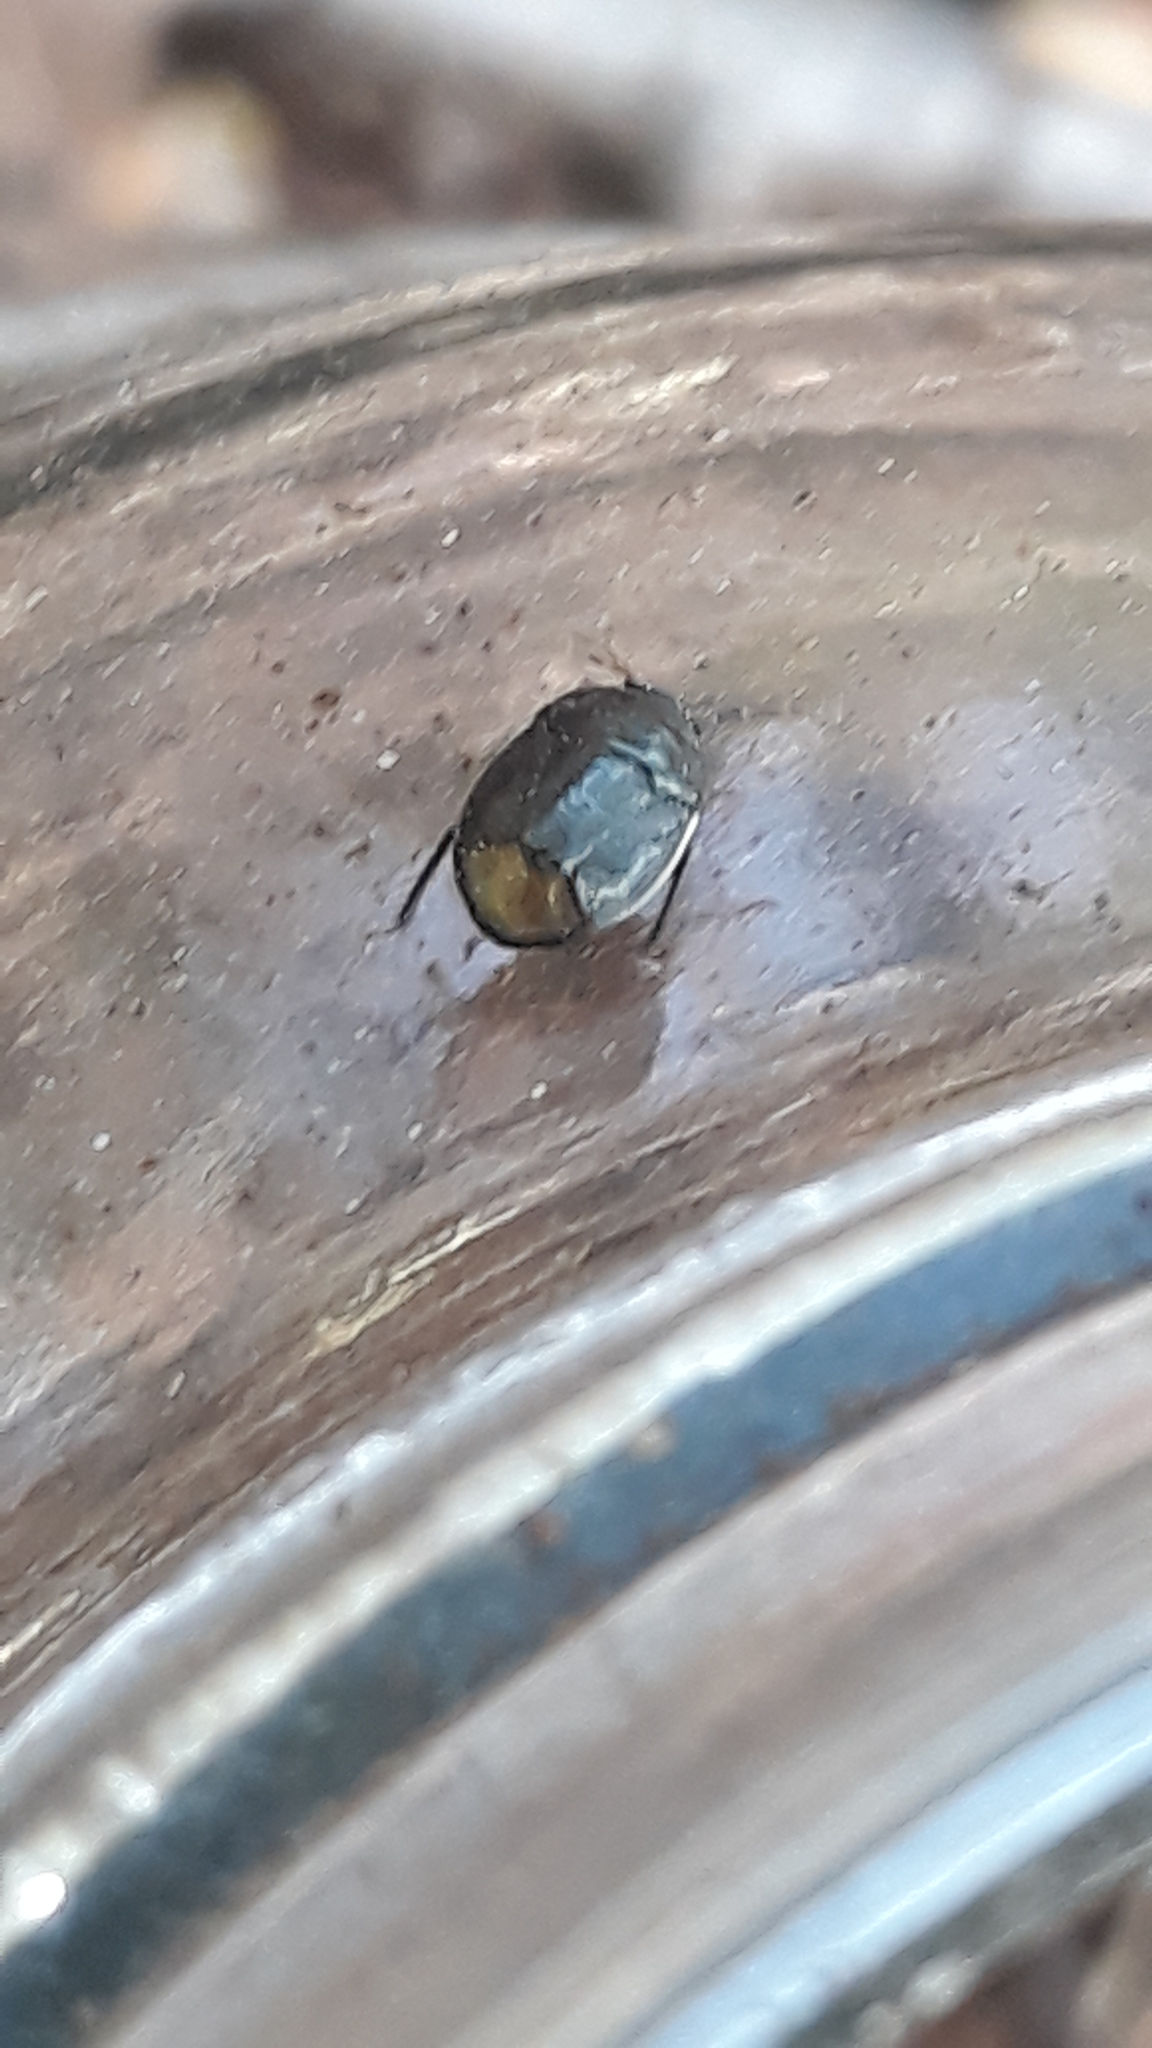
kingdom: Animalia
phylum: Arthropoda
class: Insecta
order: Hemiptera
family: Cydnidae
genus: Legnotus
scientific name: Legnotus limbosus
